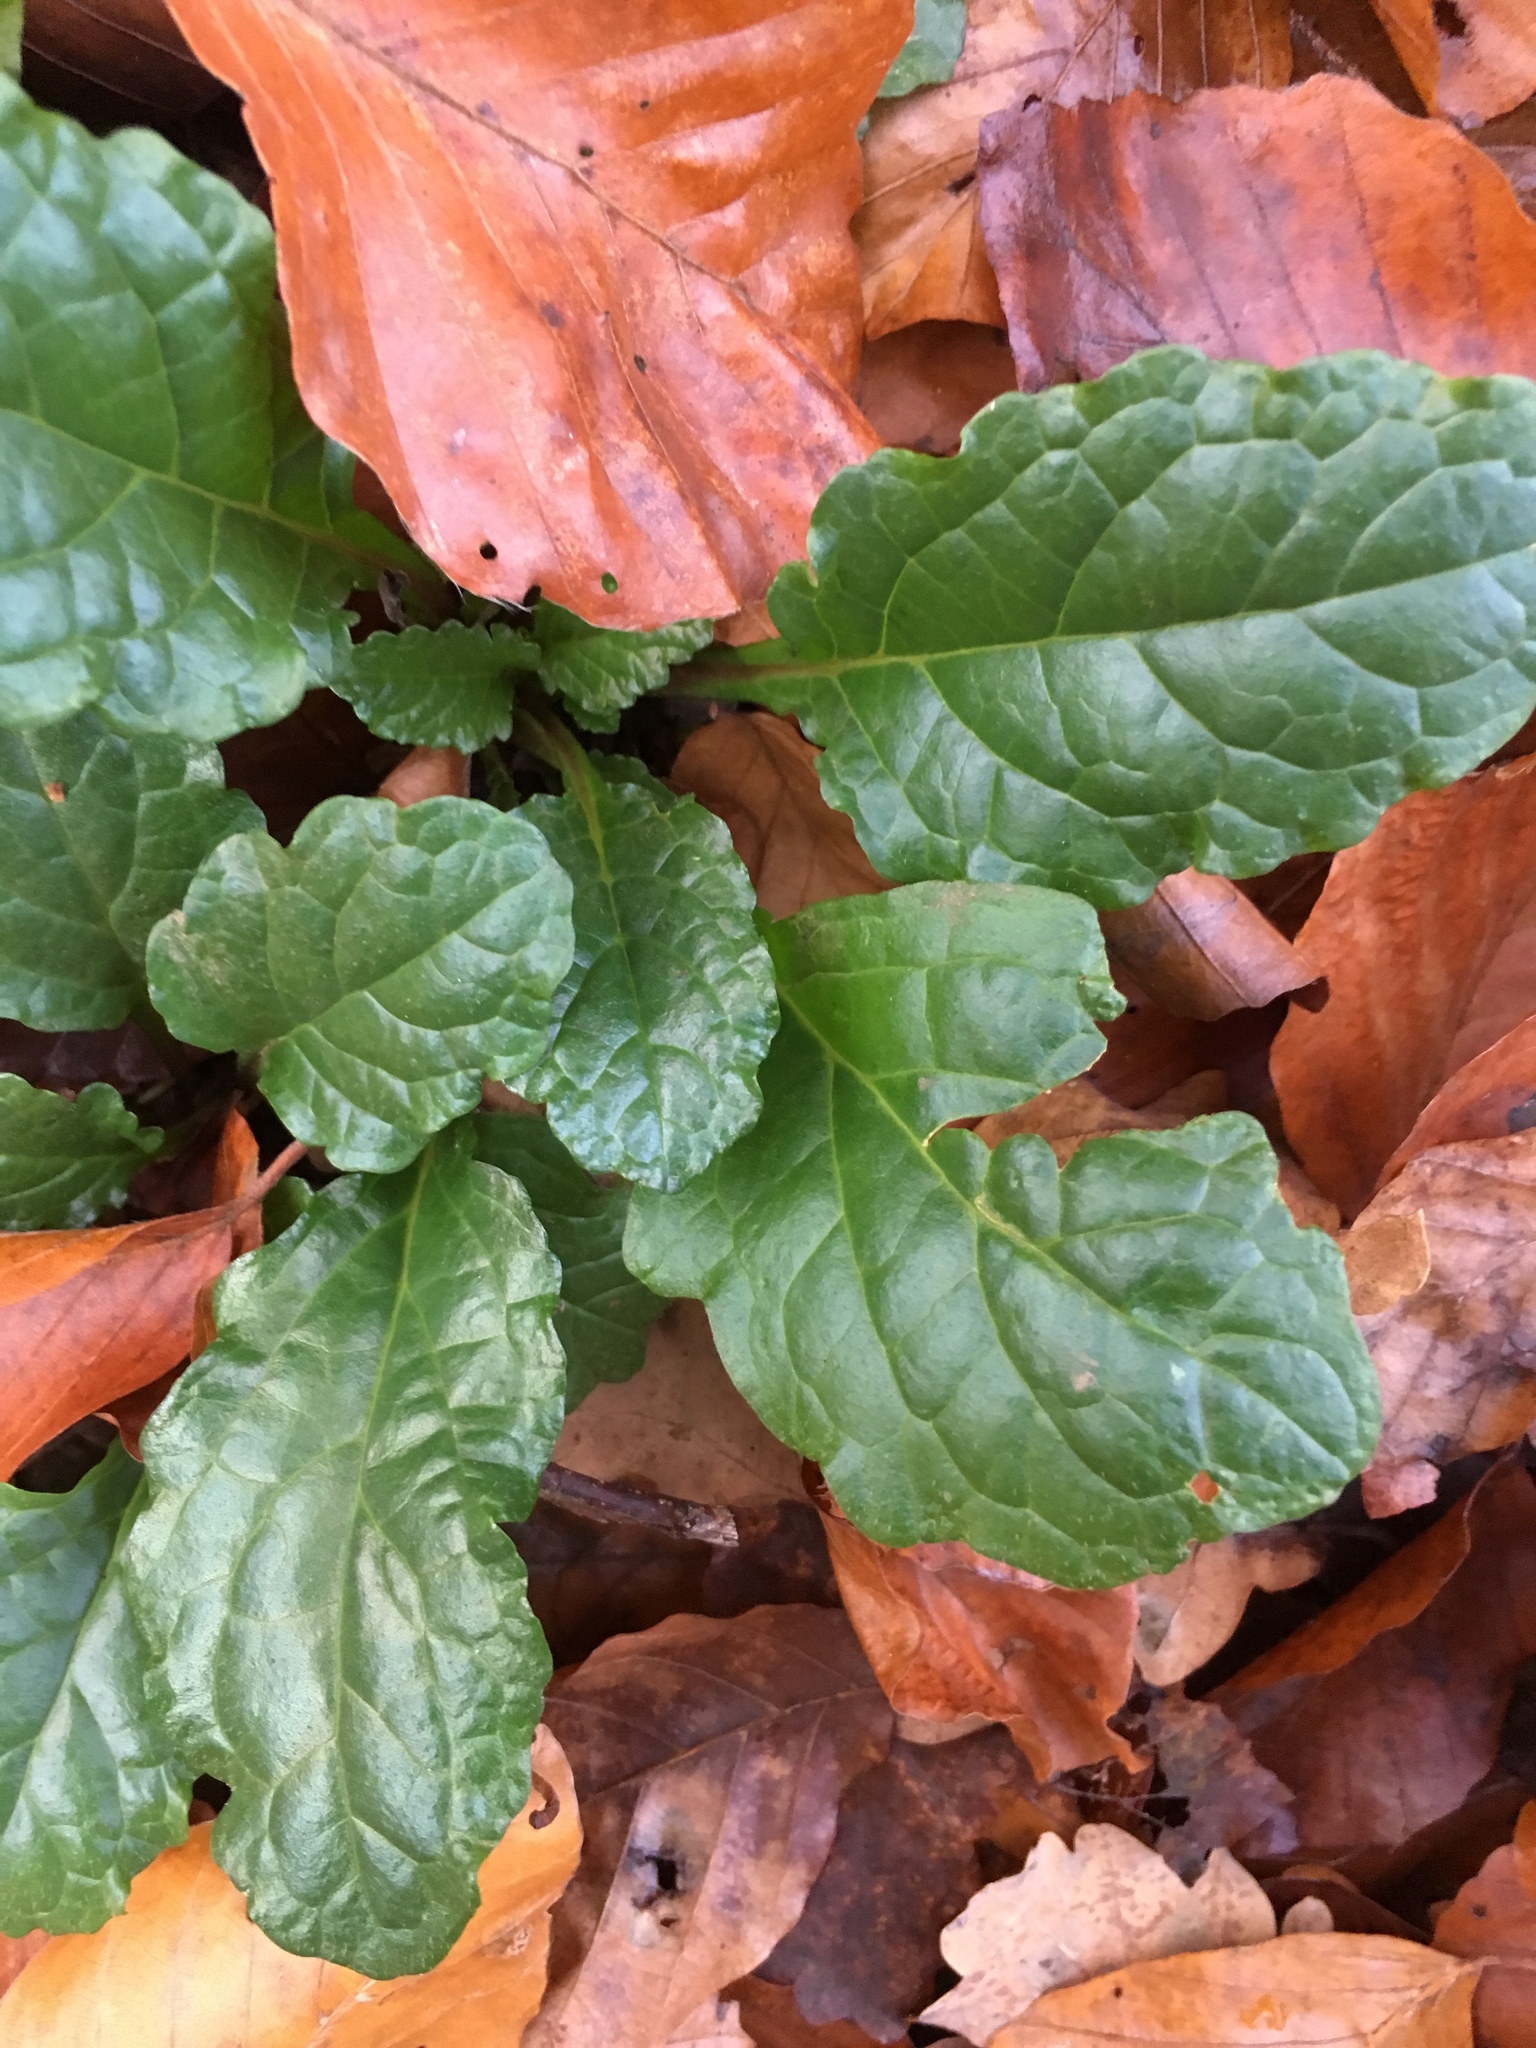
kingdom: Plantae
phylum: Tracheophyta
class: Magnoliopsida
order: Lamiales
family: Lamiaceae
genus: Ajuga
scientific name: Ajuga reptans
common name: Bugle
